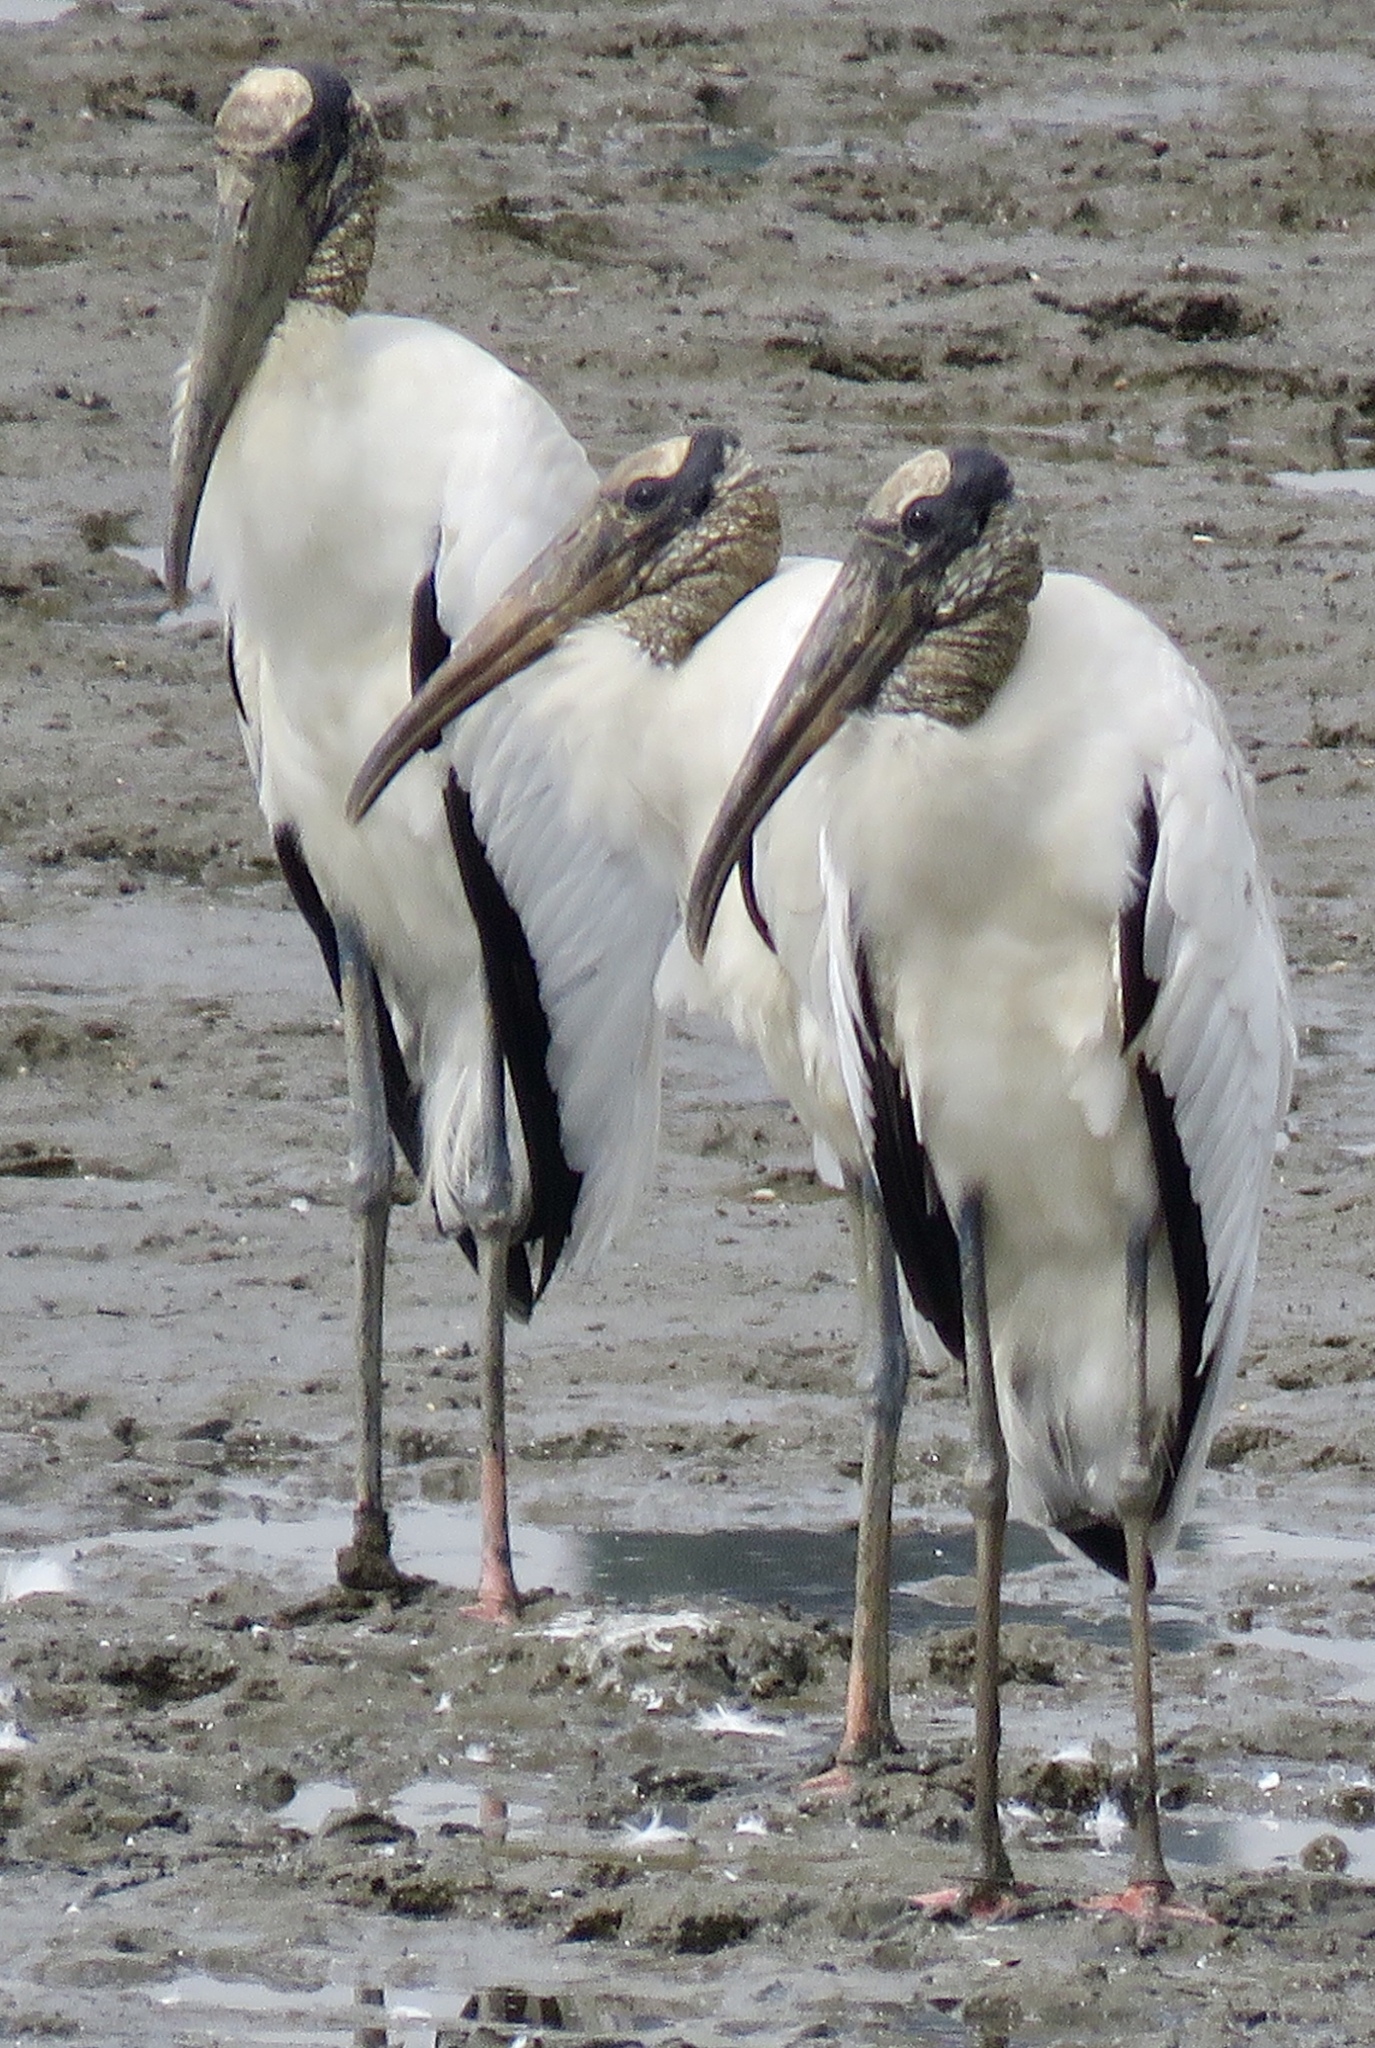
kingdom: Animalia
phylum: Chordata
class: Aves
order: Ciconiiformes
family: Ciconiidae
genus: Mycteria
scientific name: Mycteria americana
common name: Wood stork
